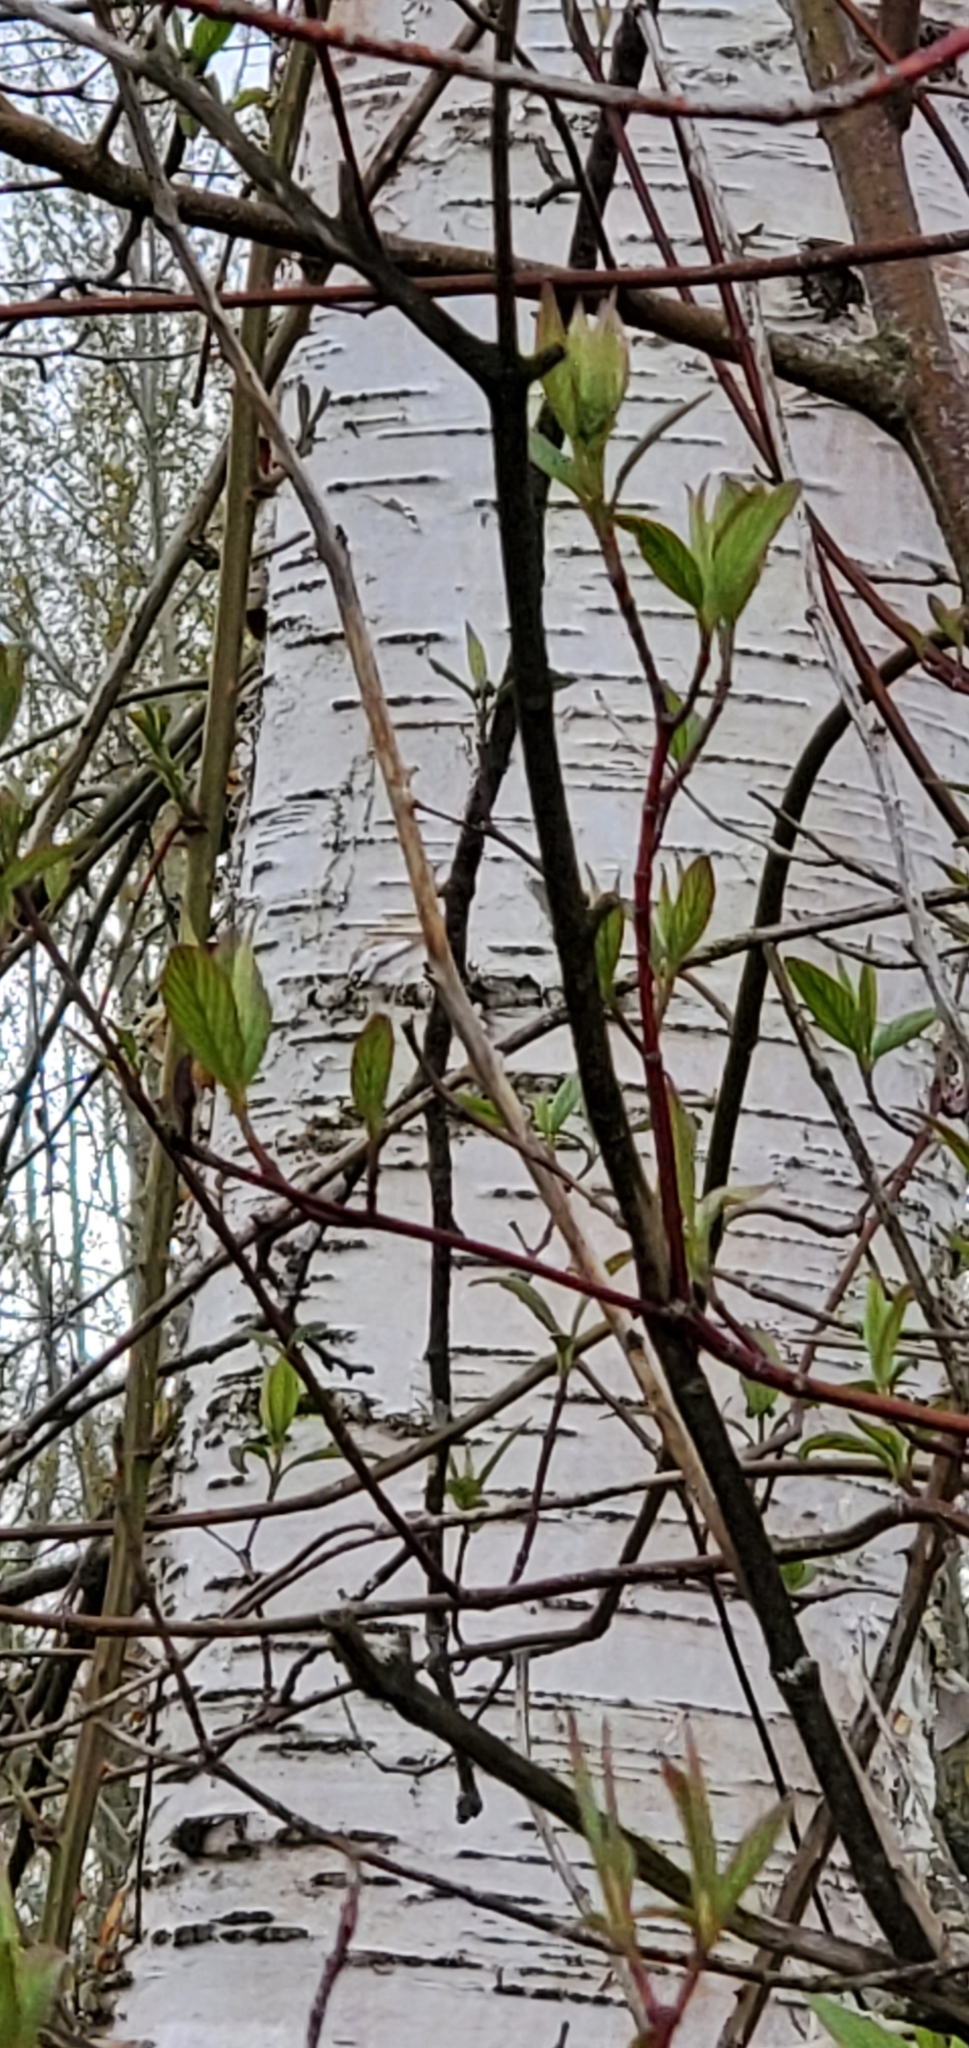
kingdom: Plantae
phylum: Tracheophyta
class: Magnoliopsida
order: Fagales
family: Betulaceae
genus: Betula
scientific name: Betula papyrifera
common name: Paper birch
